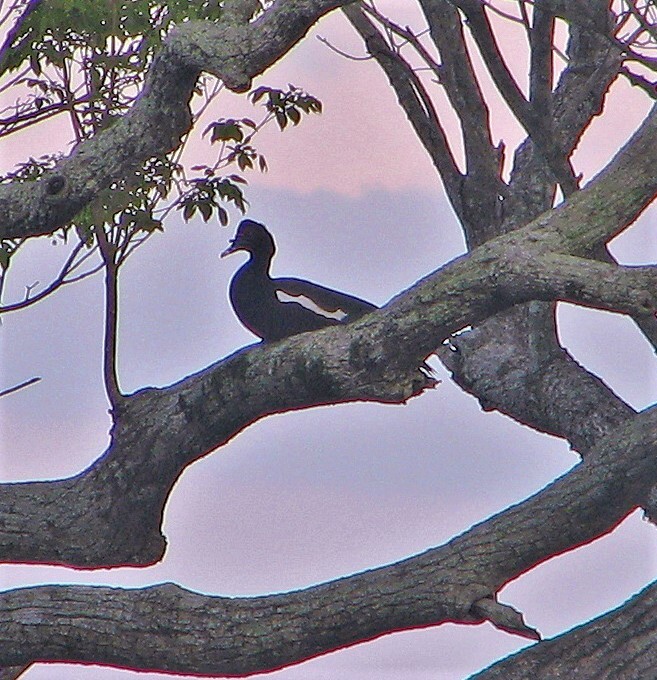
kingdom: Animalia
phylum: Chordata
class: Aves
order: Anseriformes
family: Anatidae
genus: Cairina
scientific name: Cairina moschata
